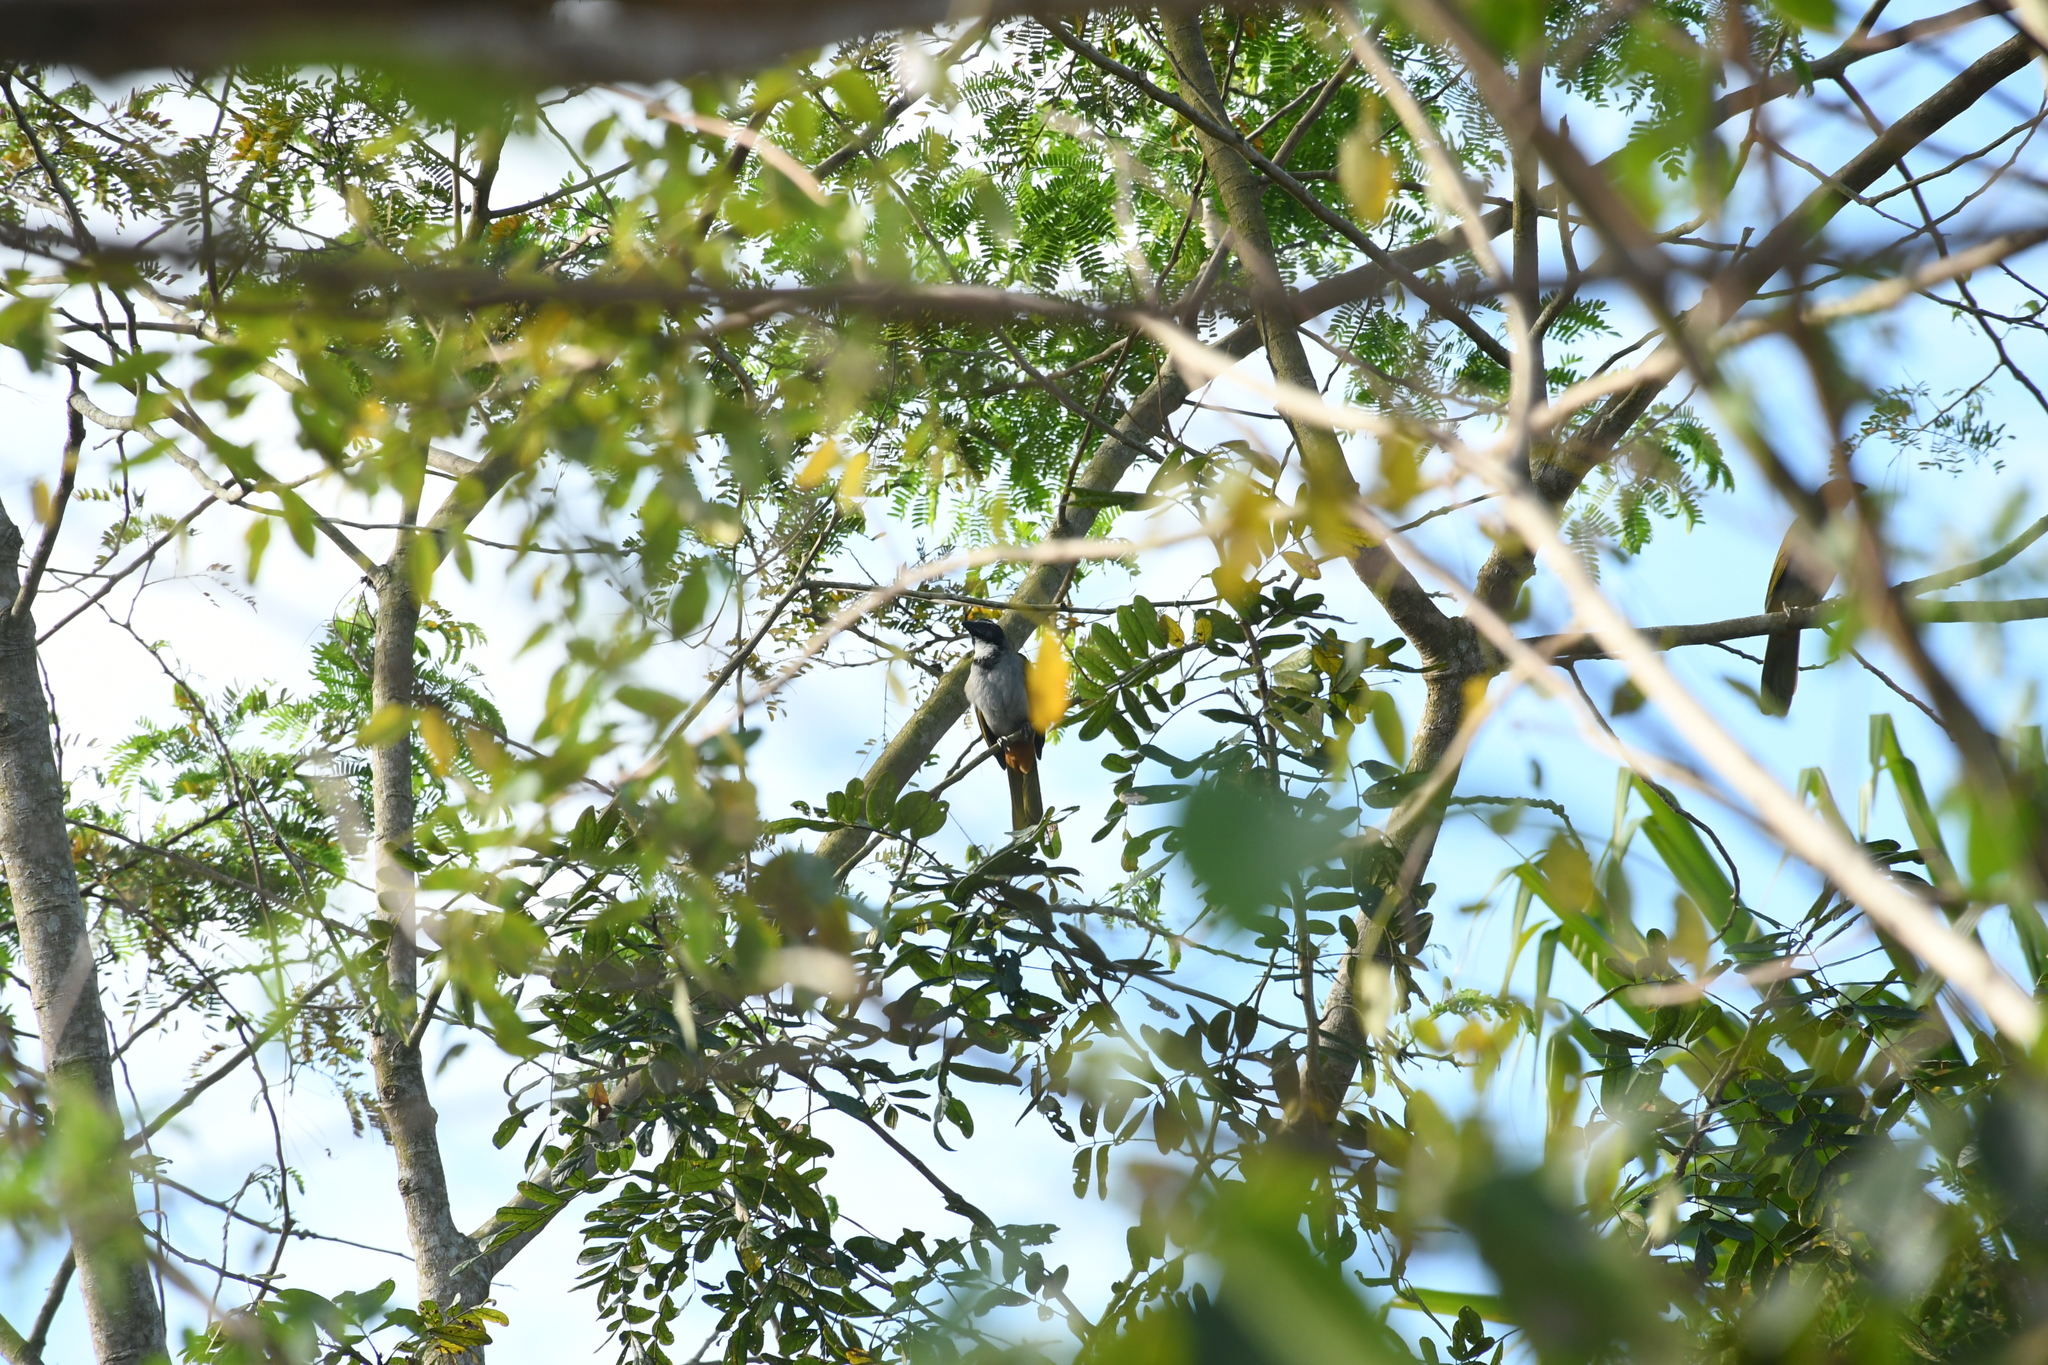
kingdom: Animalia
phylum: Chordata
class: Aves
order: Passeriformes
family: Thraupidae
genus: Saltator
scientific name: Saltator atriceps
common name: Black-headed saltator
